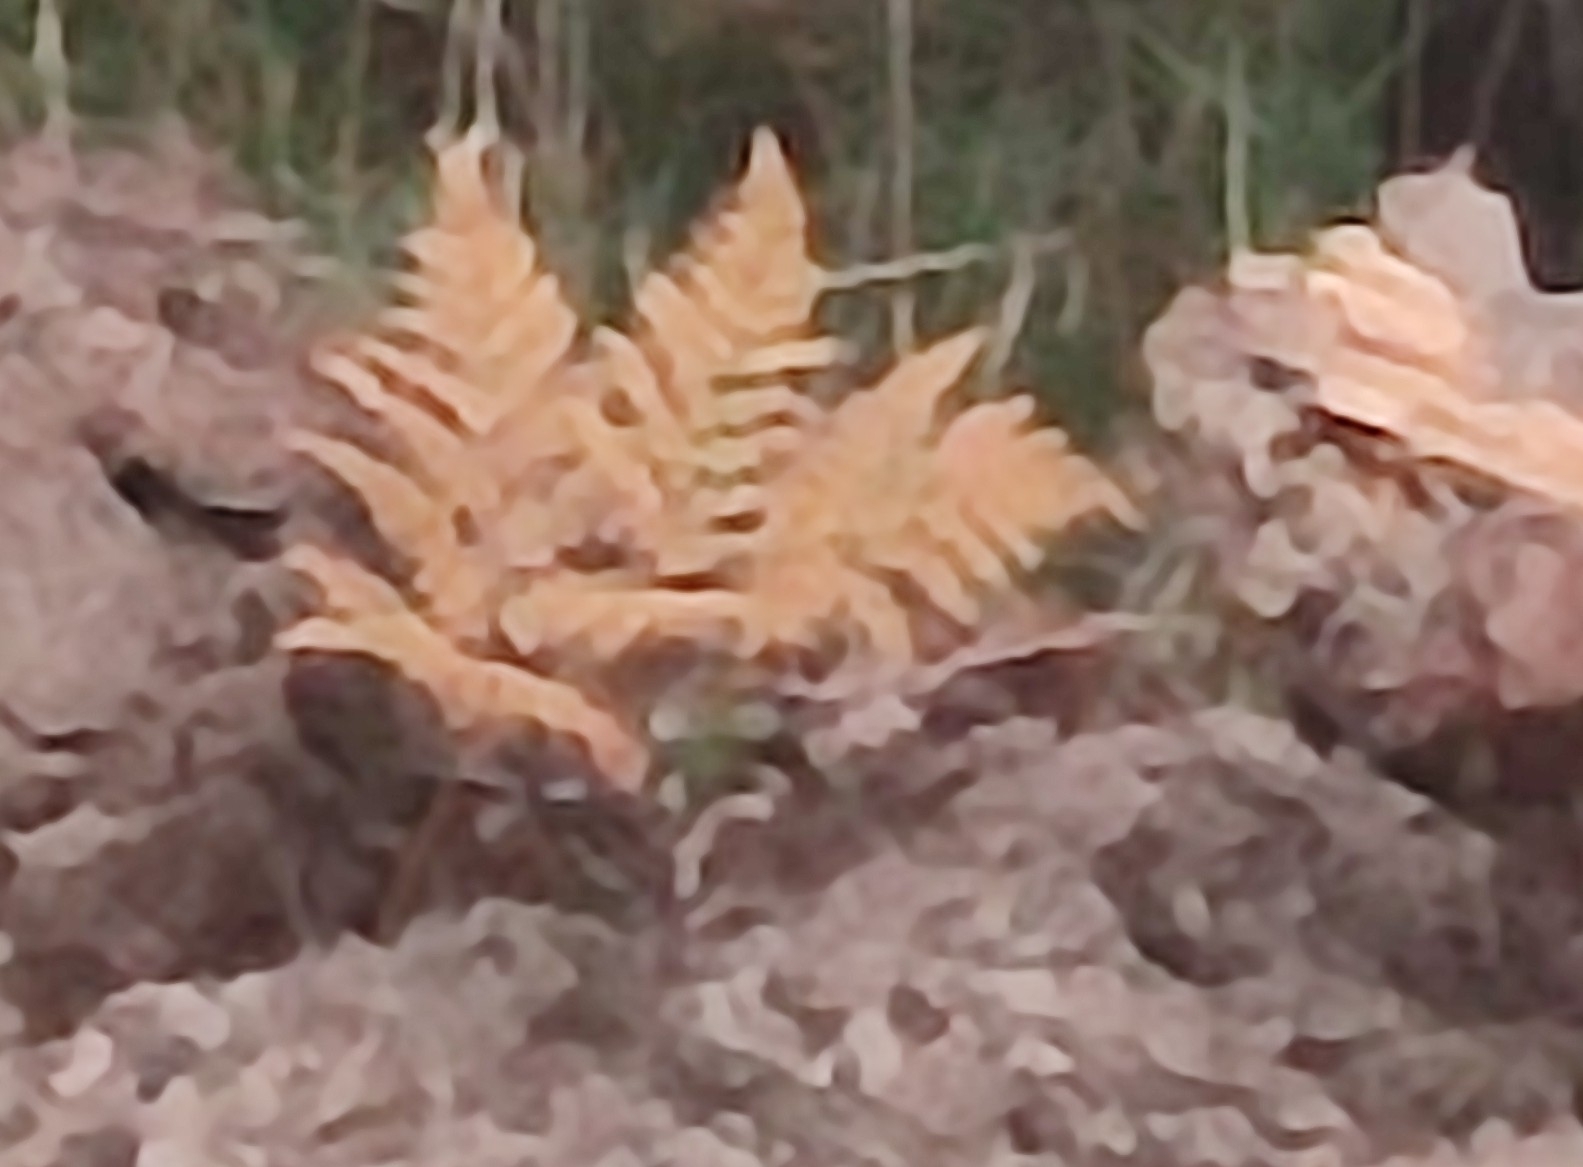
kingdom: Plantae
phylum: Tracheophyta
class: Polypodiopsida
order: Polypodiales
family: Dennstaedtiaceae
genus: Pteridium
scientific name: Pteridium aquilinum
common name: Bracken
